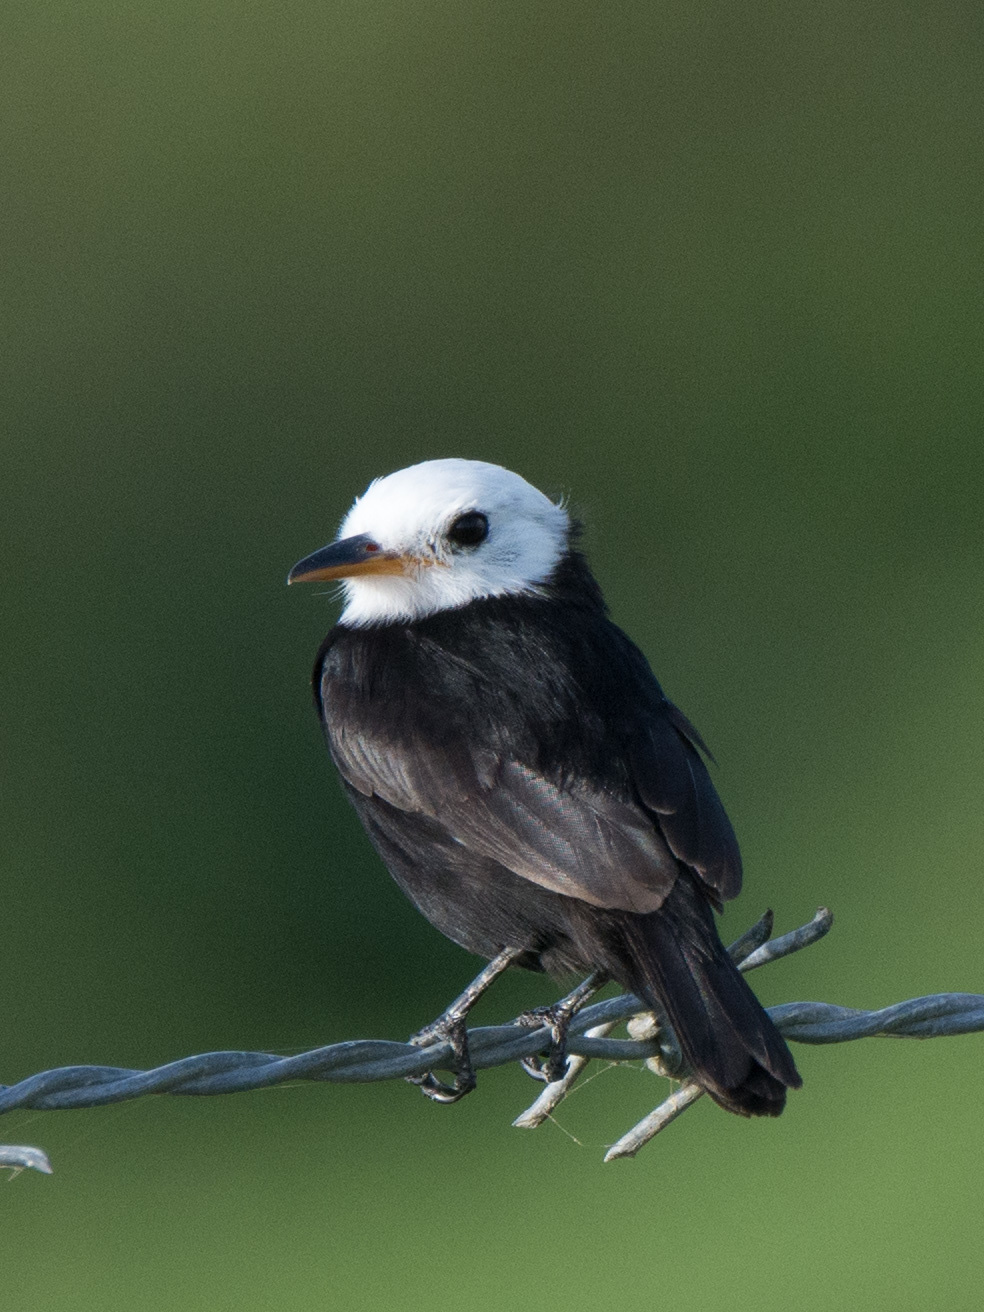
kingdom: Animalia
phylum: Chordata
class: Aves
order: Passeriformes
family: Tyrannidae
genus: Arundinicola
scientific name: Arundinicola leucocephala
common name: White-headed marsh tyrant
